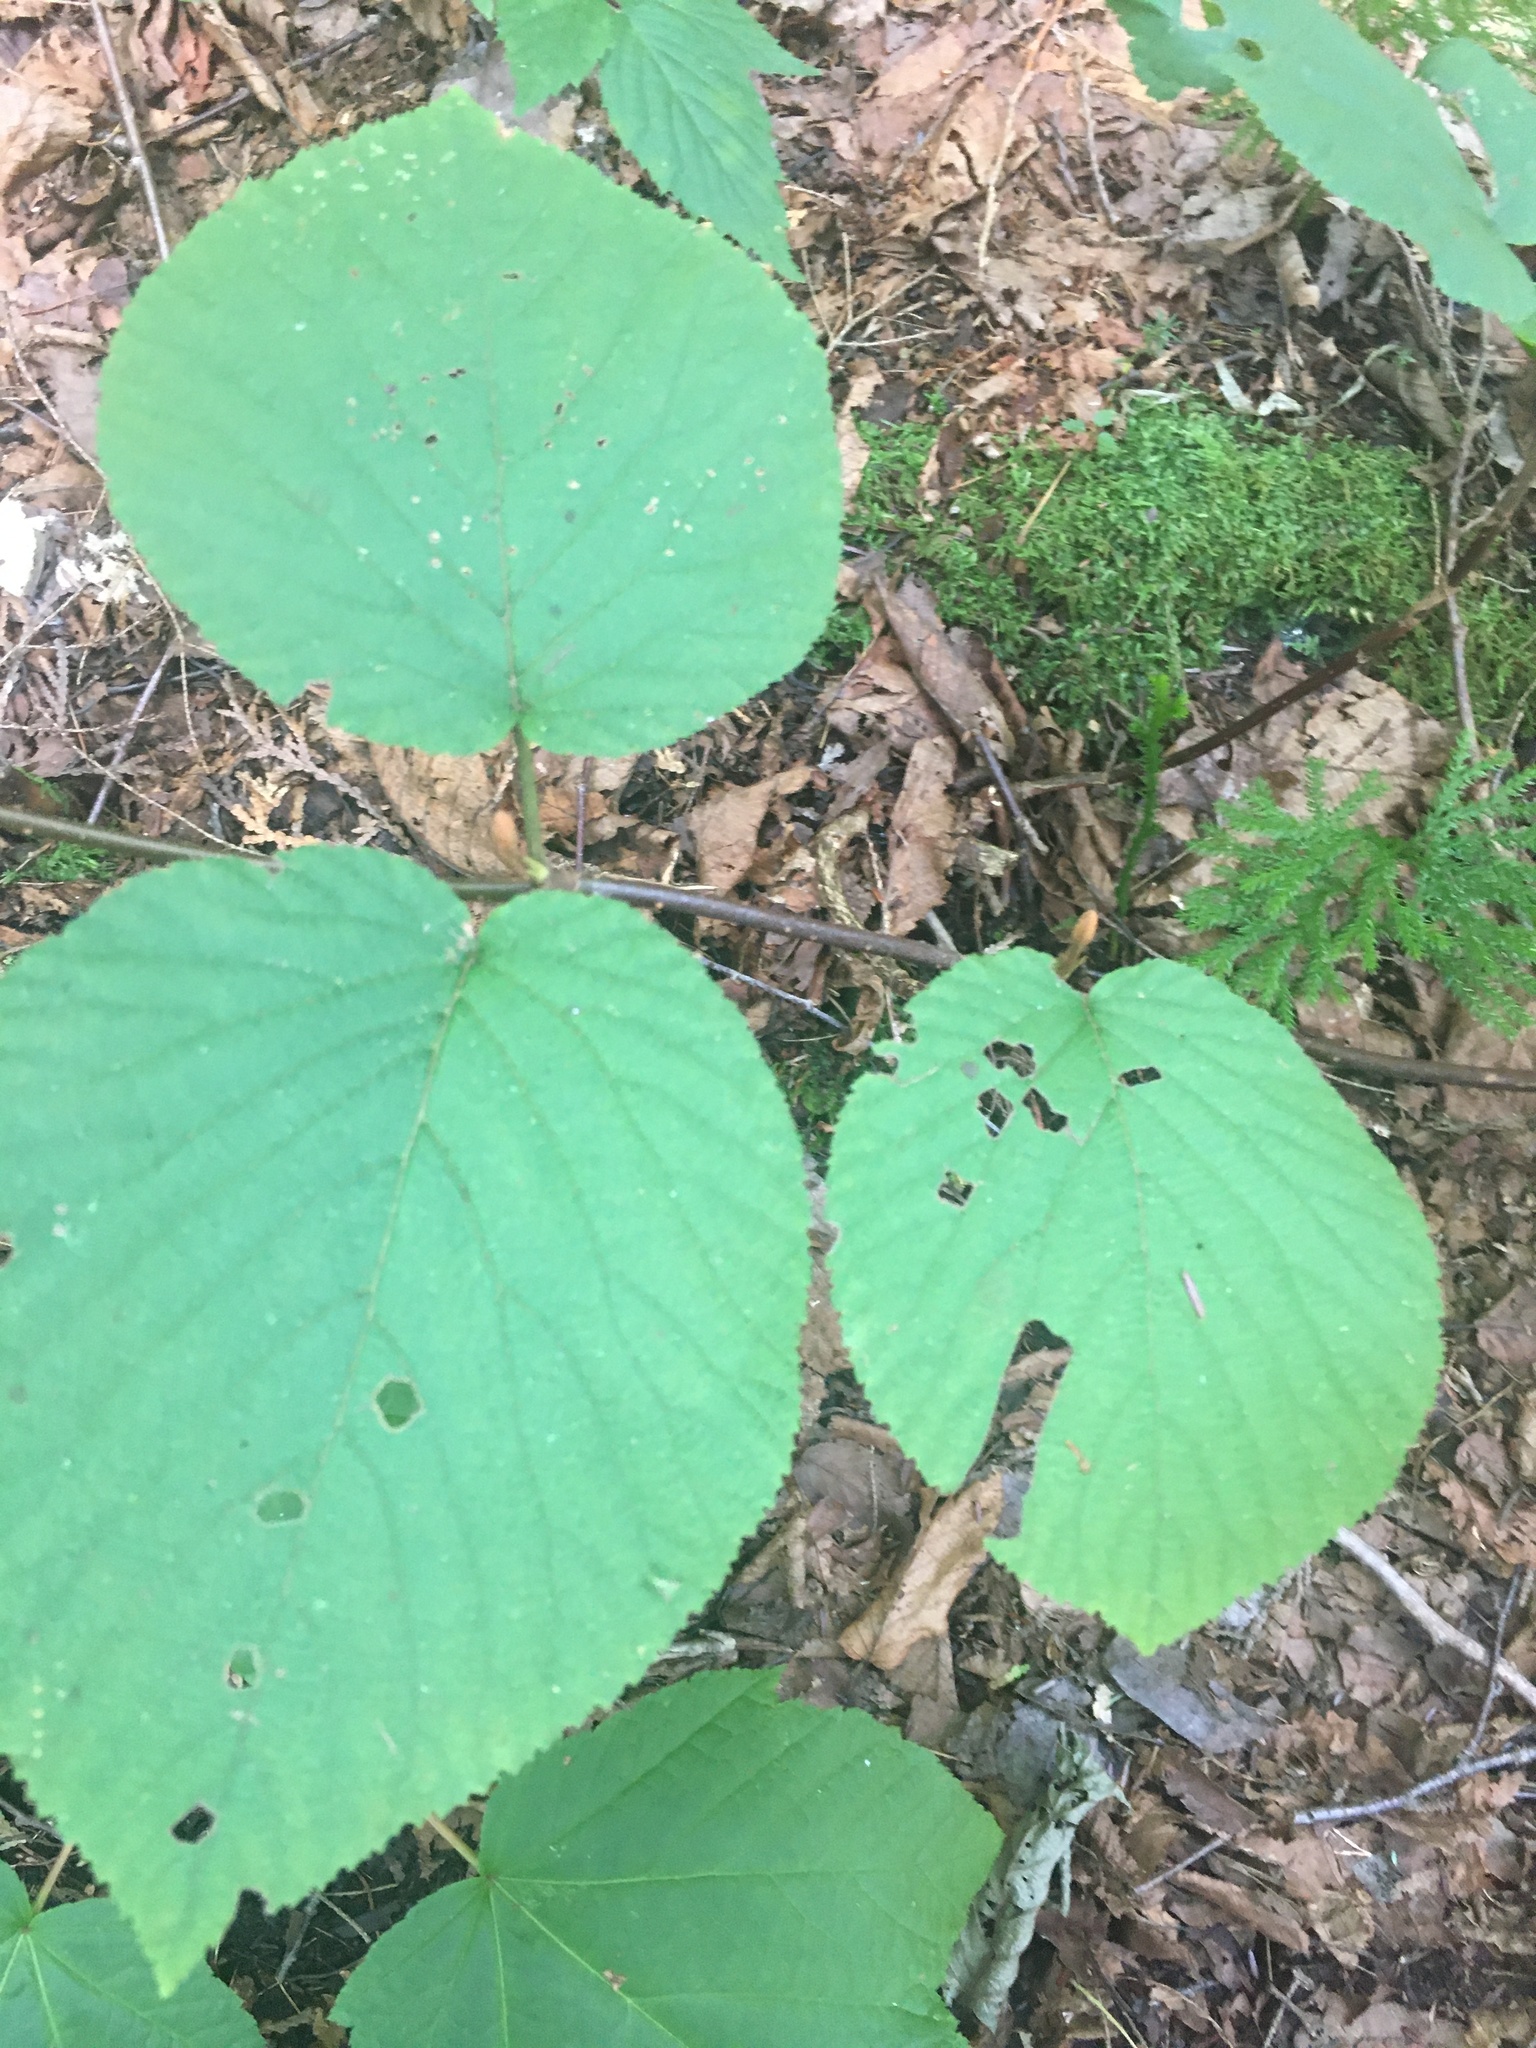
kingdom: Plantae
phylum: Tracheophyta
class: Magnoliopsida
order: Dipsacales
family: Viburnaceae
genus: Viburnum
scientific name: Viburnum lantanoides
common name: Hobblebush
